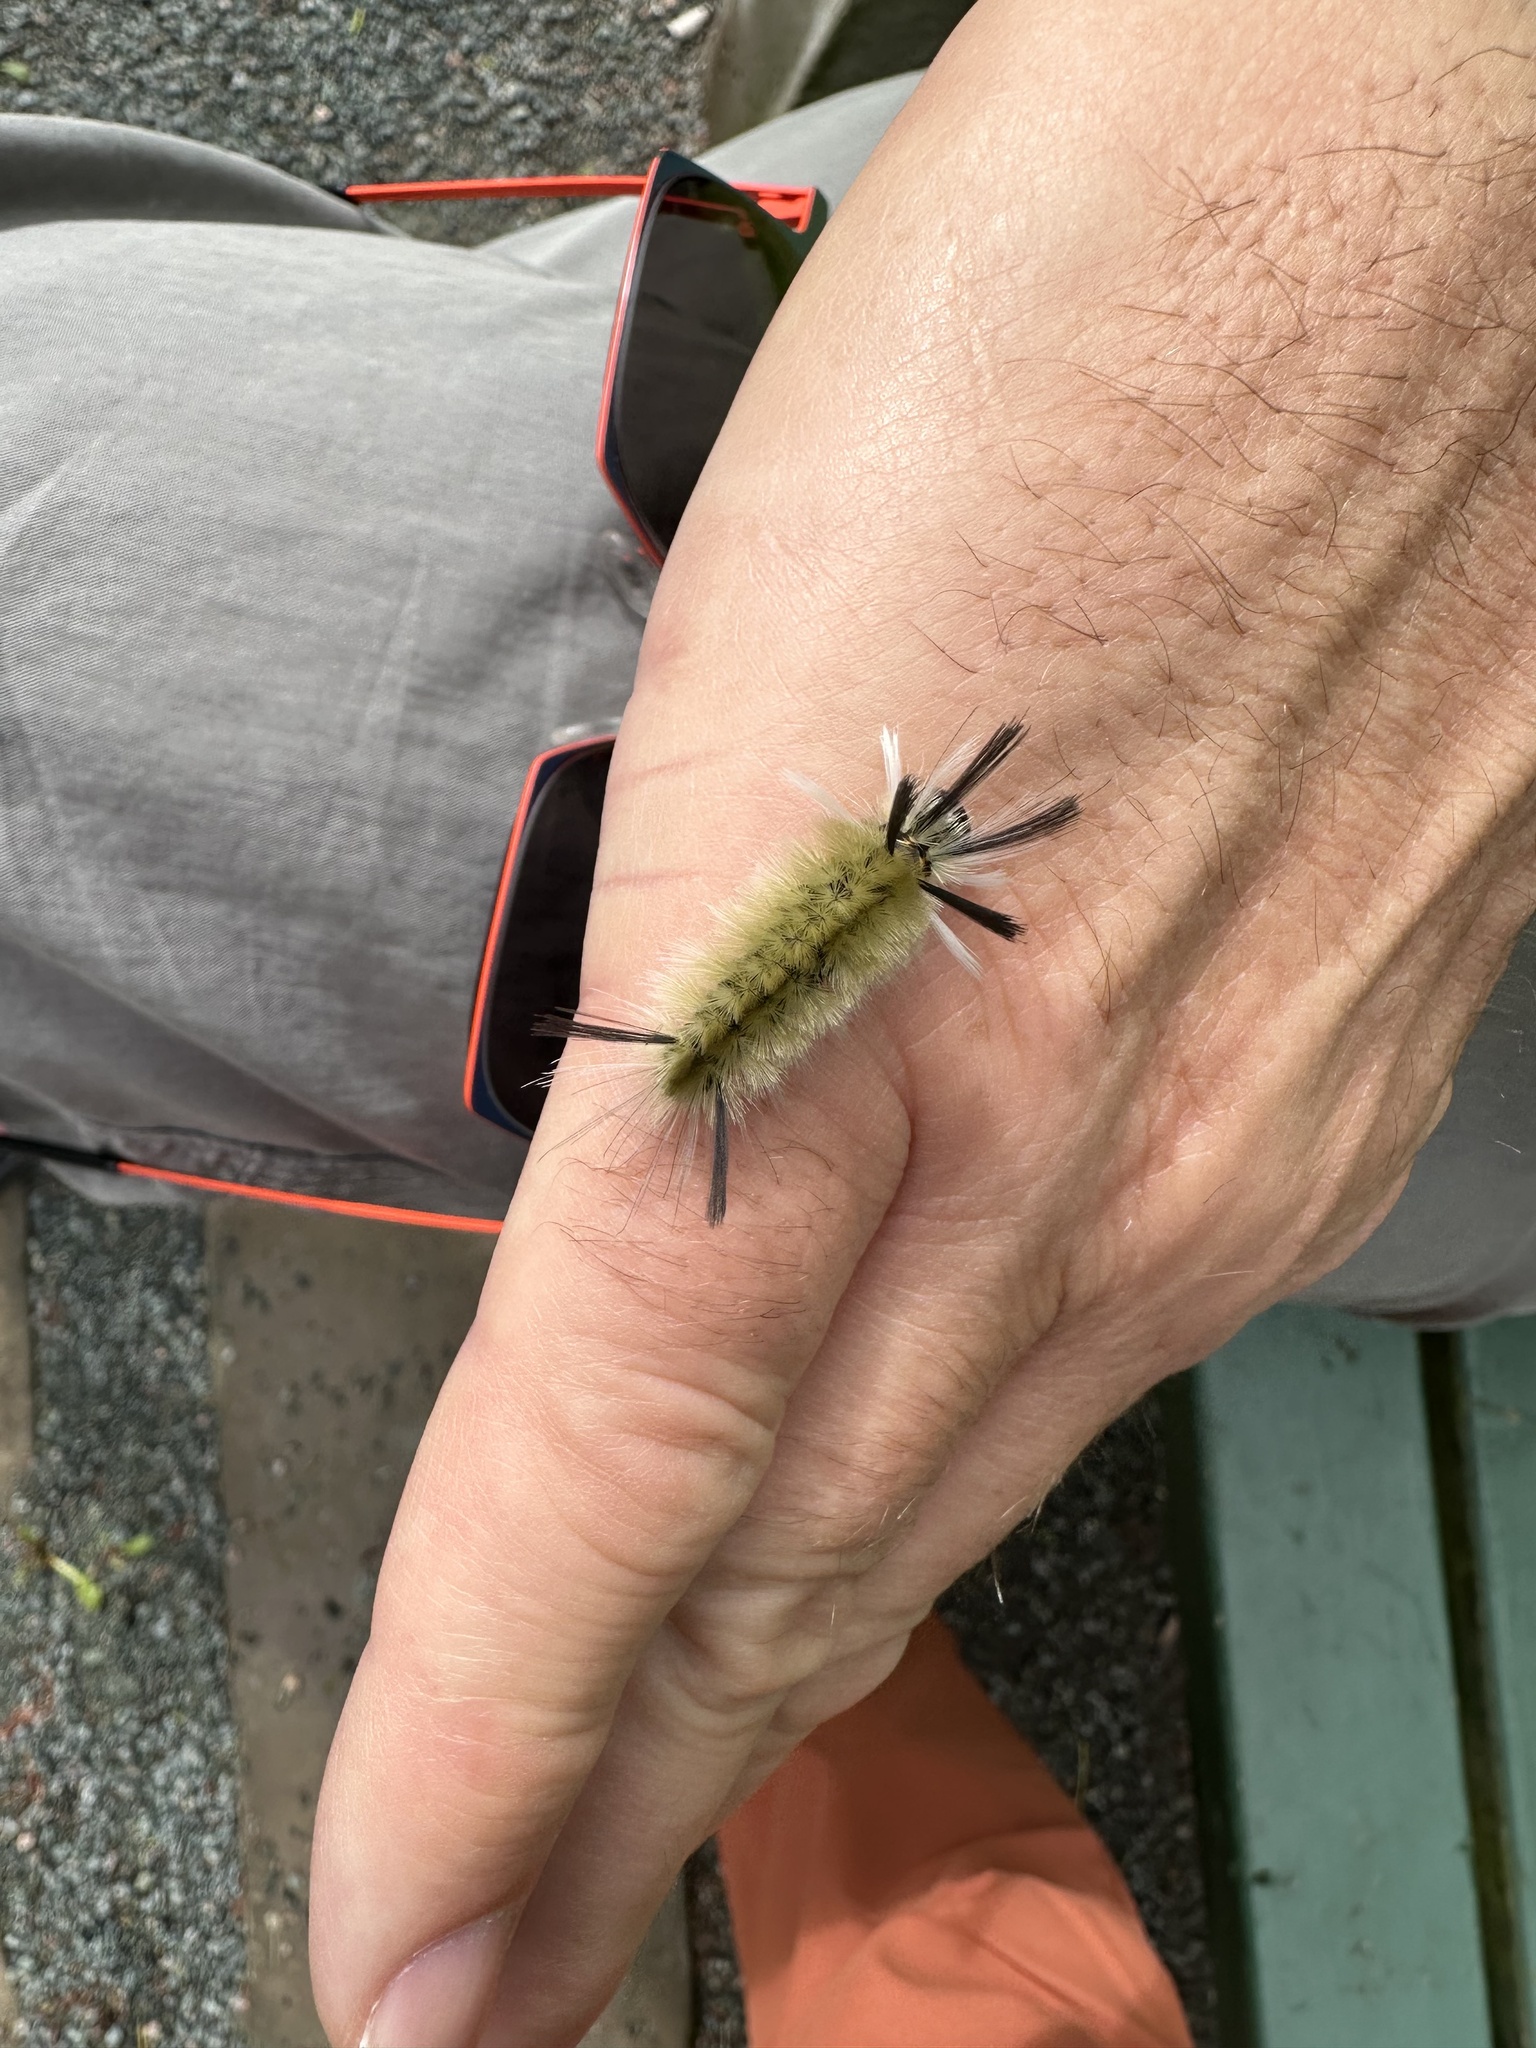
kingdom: Animalia
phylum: Arthropoda
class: Insecta
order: Lepidoptera
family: Erebidae
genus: Halysidota
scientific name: Halysidota tessellaris
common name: Banded tussock moth
